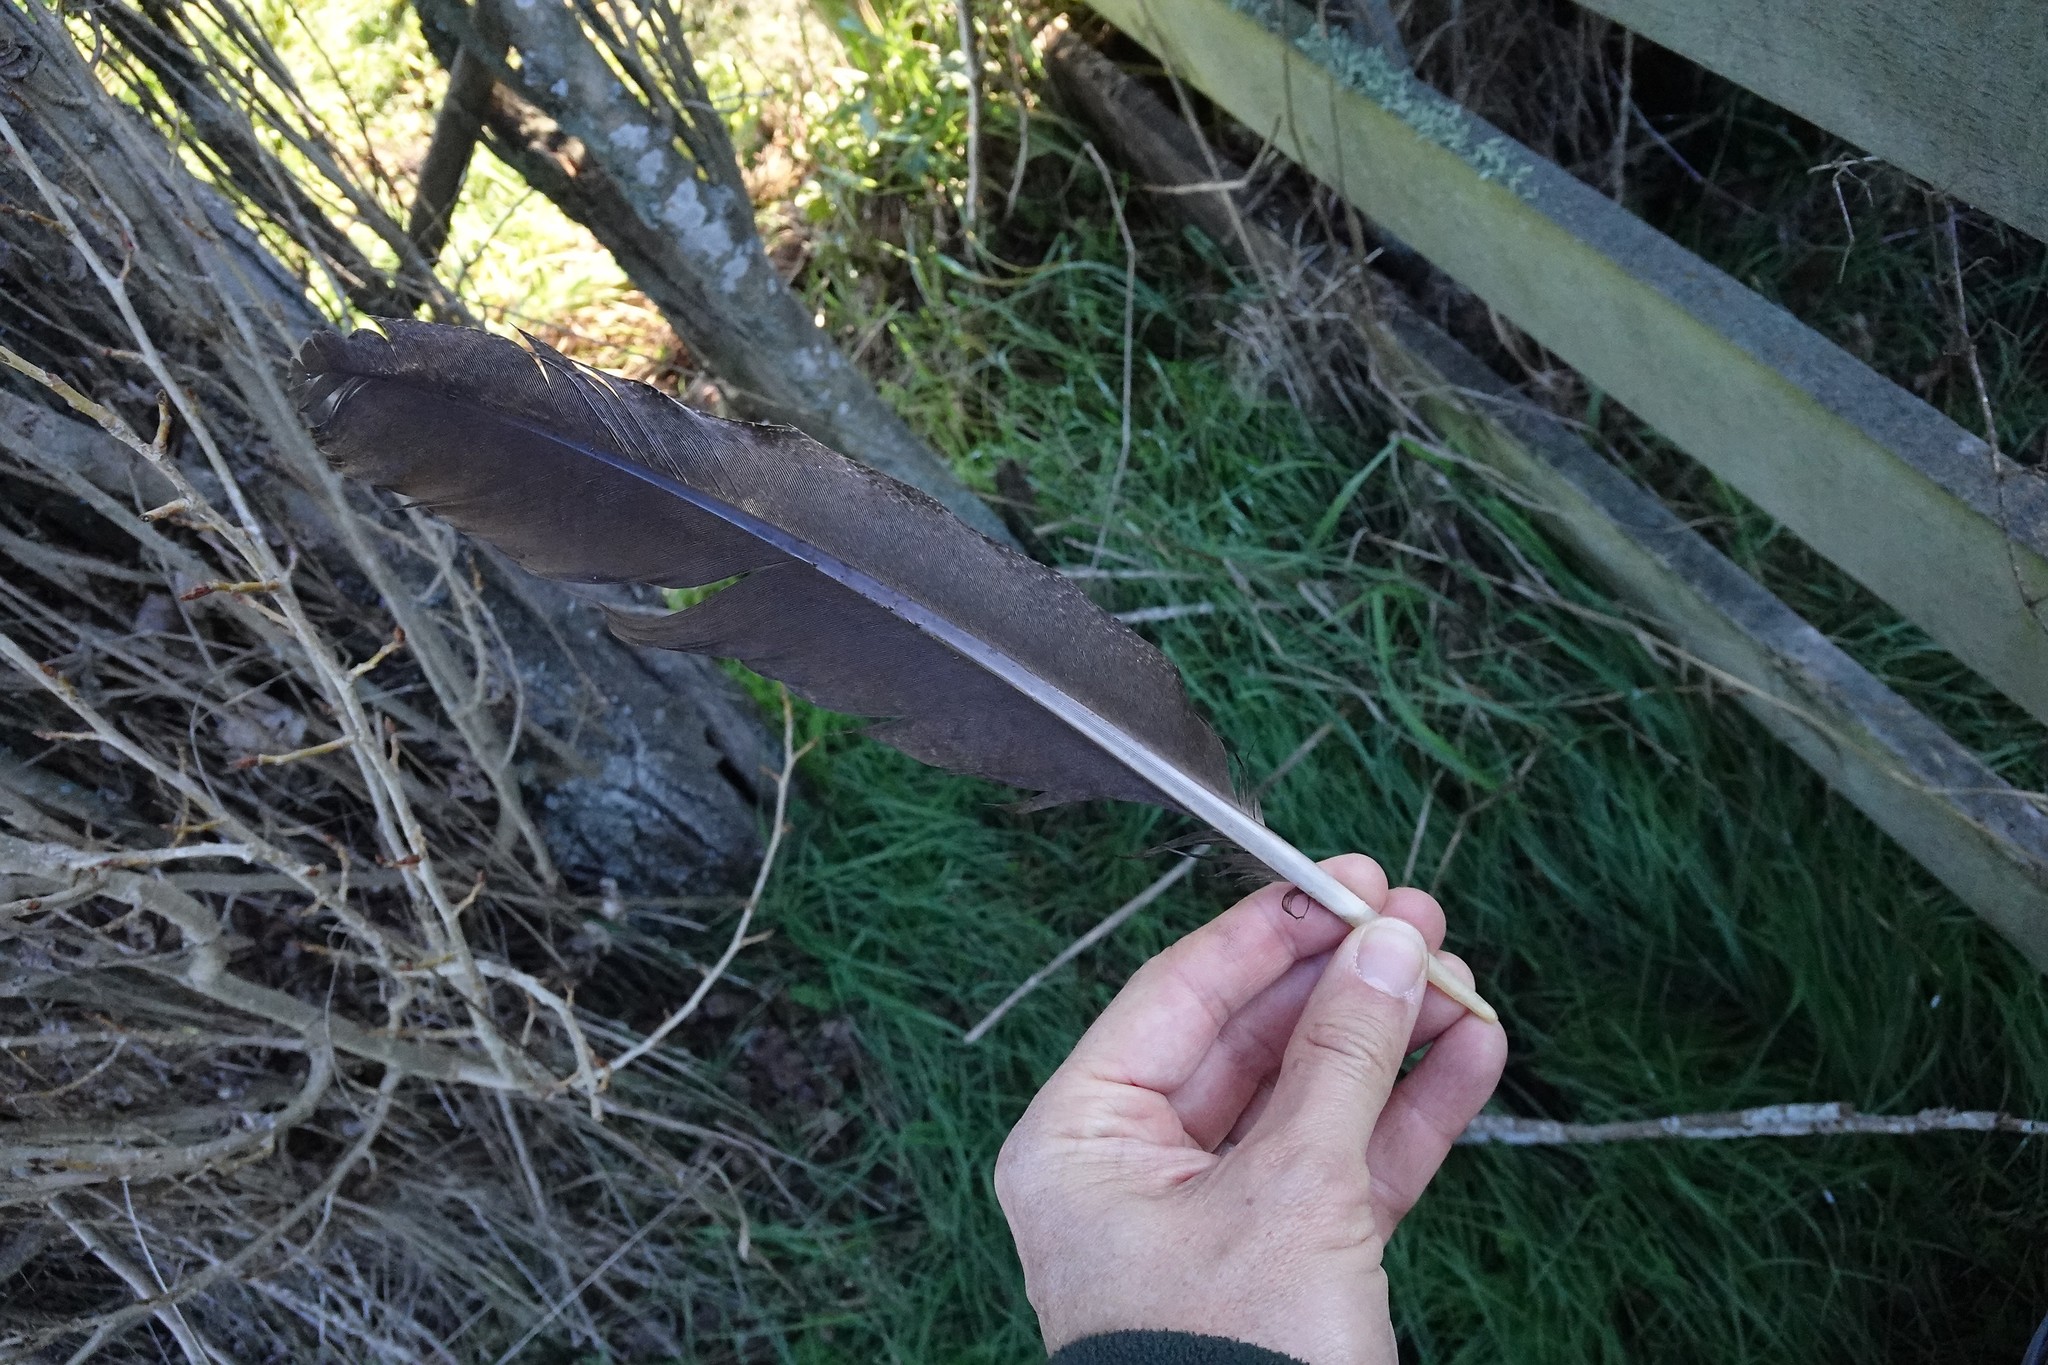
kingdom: Animalia
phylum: Chordata
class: Aves
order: Galliformes
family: Phasianidae
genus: Pavo
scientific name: Pavo cristatus
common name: Indian peafowl
